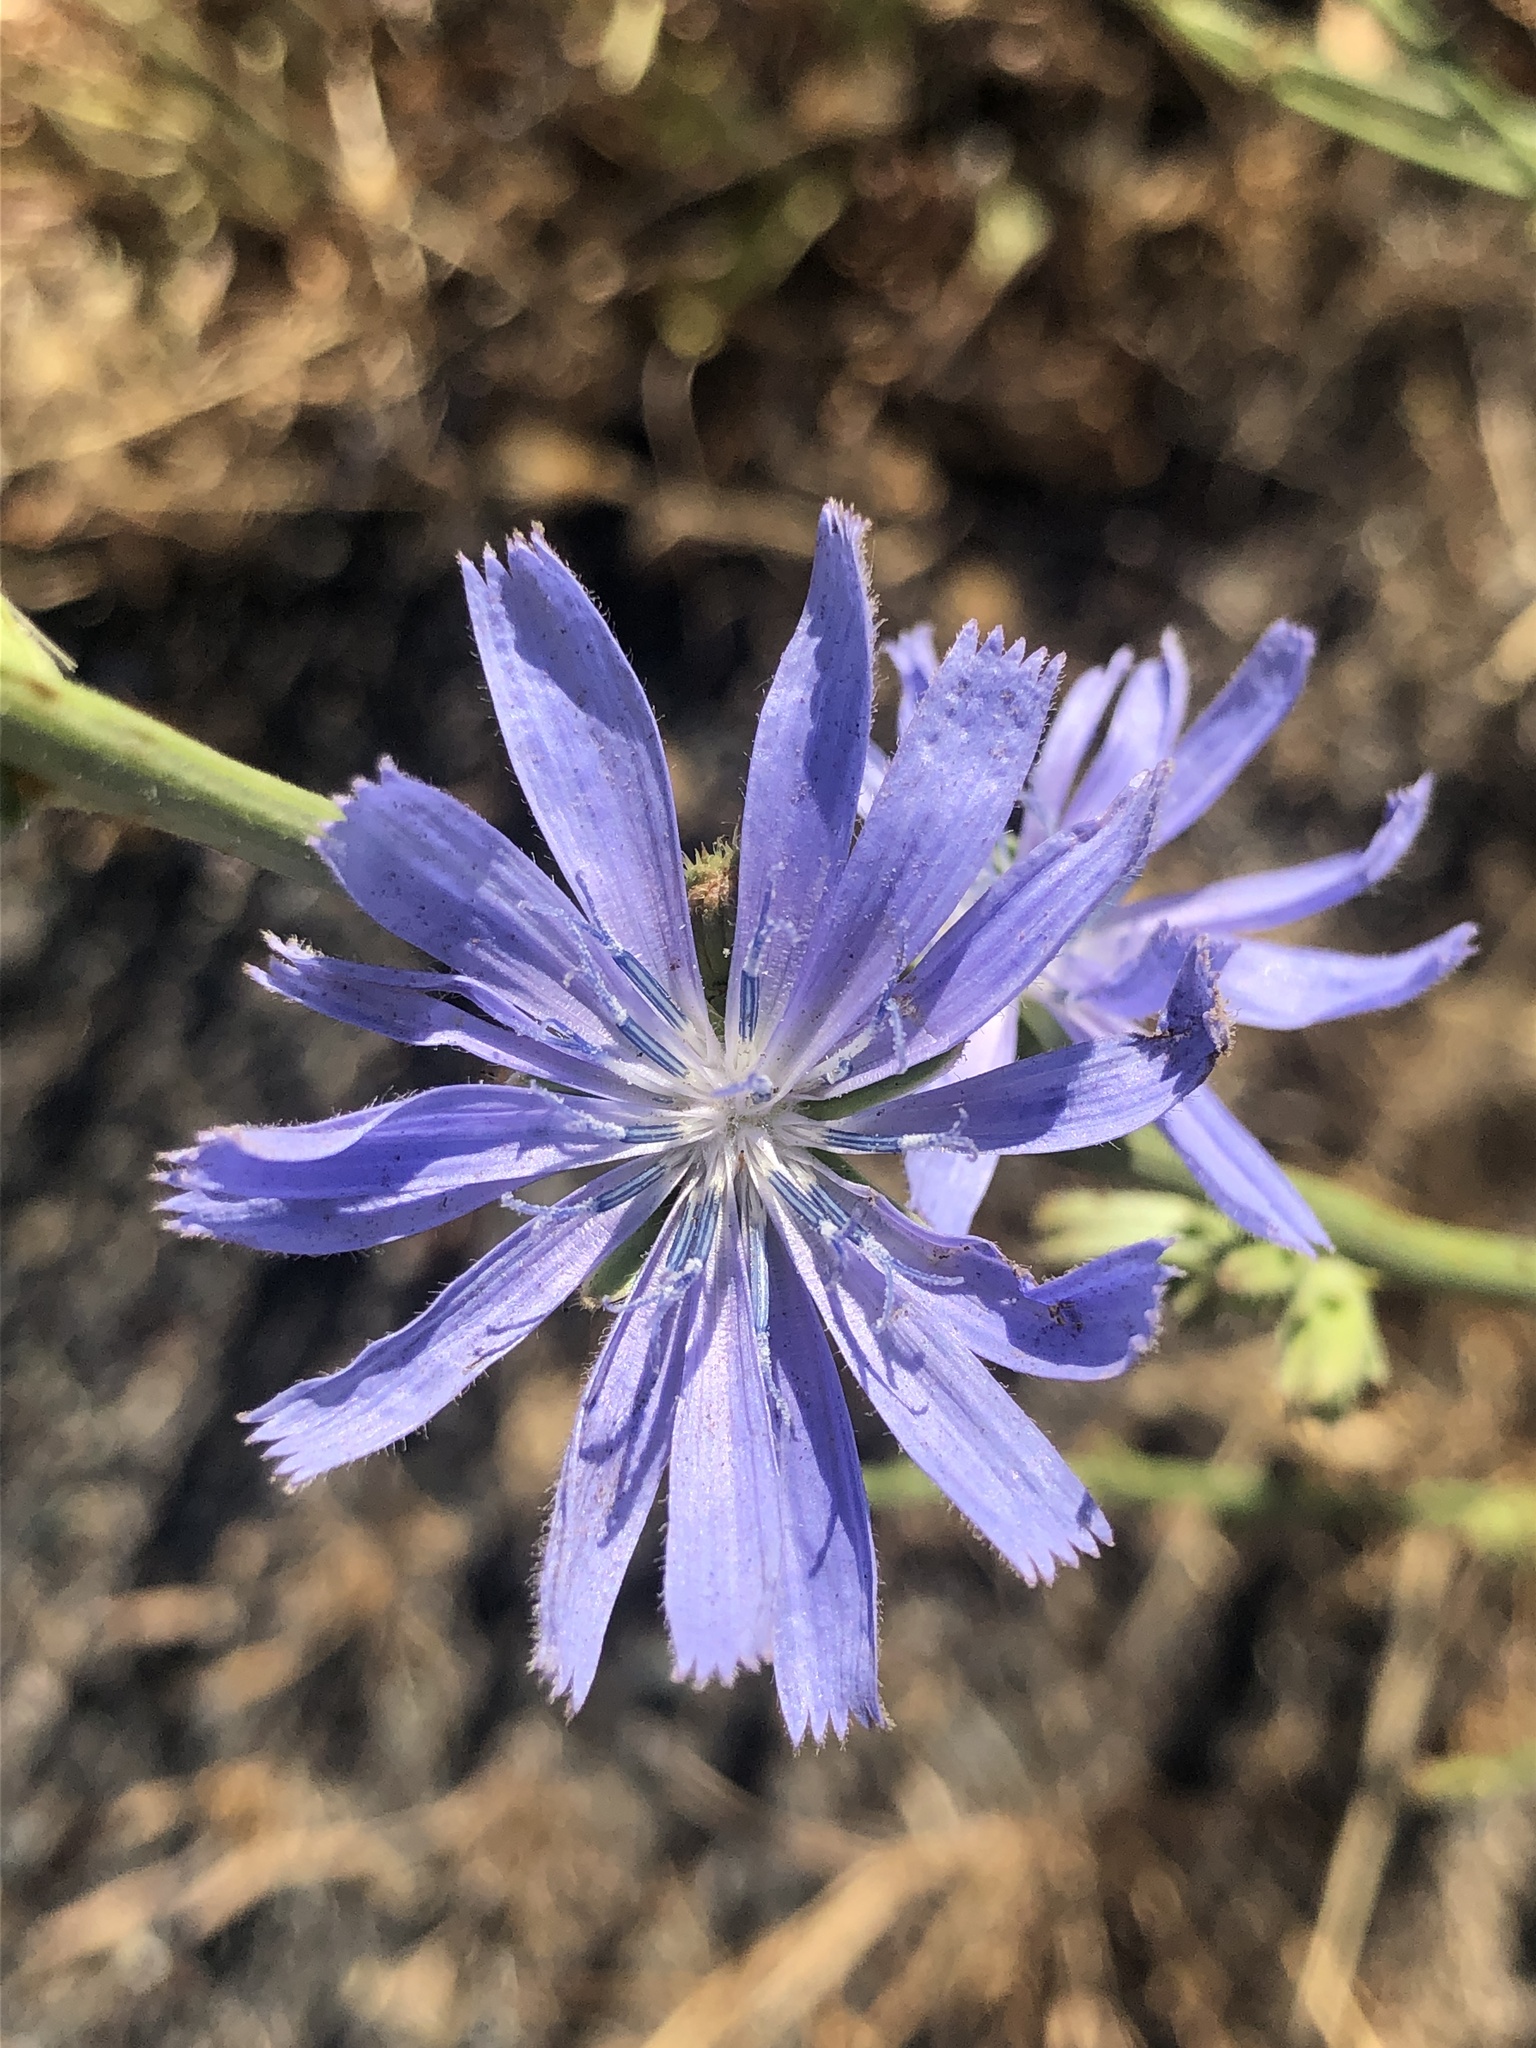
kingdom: Plantae
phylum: Tracheophyta
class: Magnoliopsida
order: Asterales
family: Asteraceae
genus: Cichorium
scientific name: Cichorium intybus
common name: Chicory
